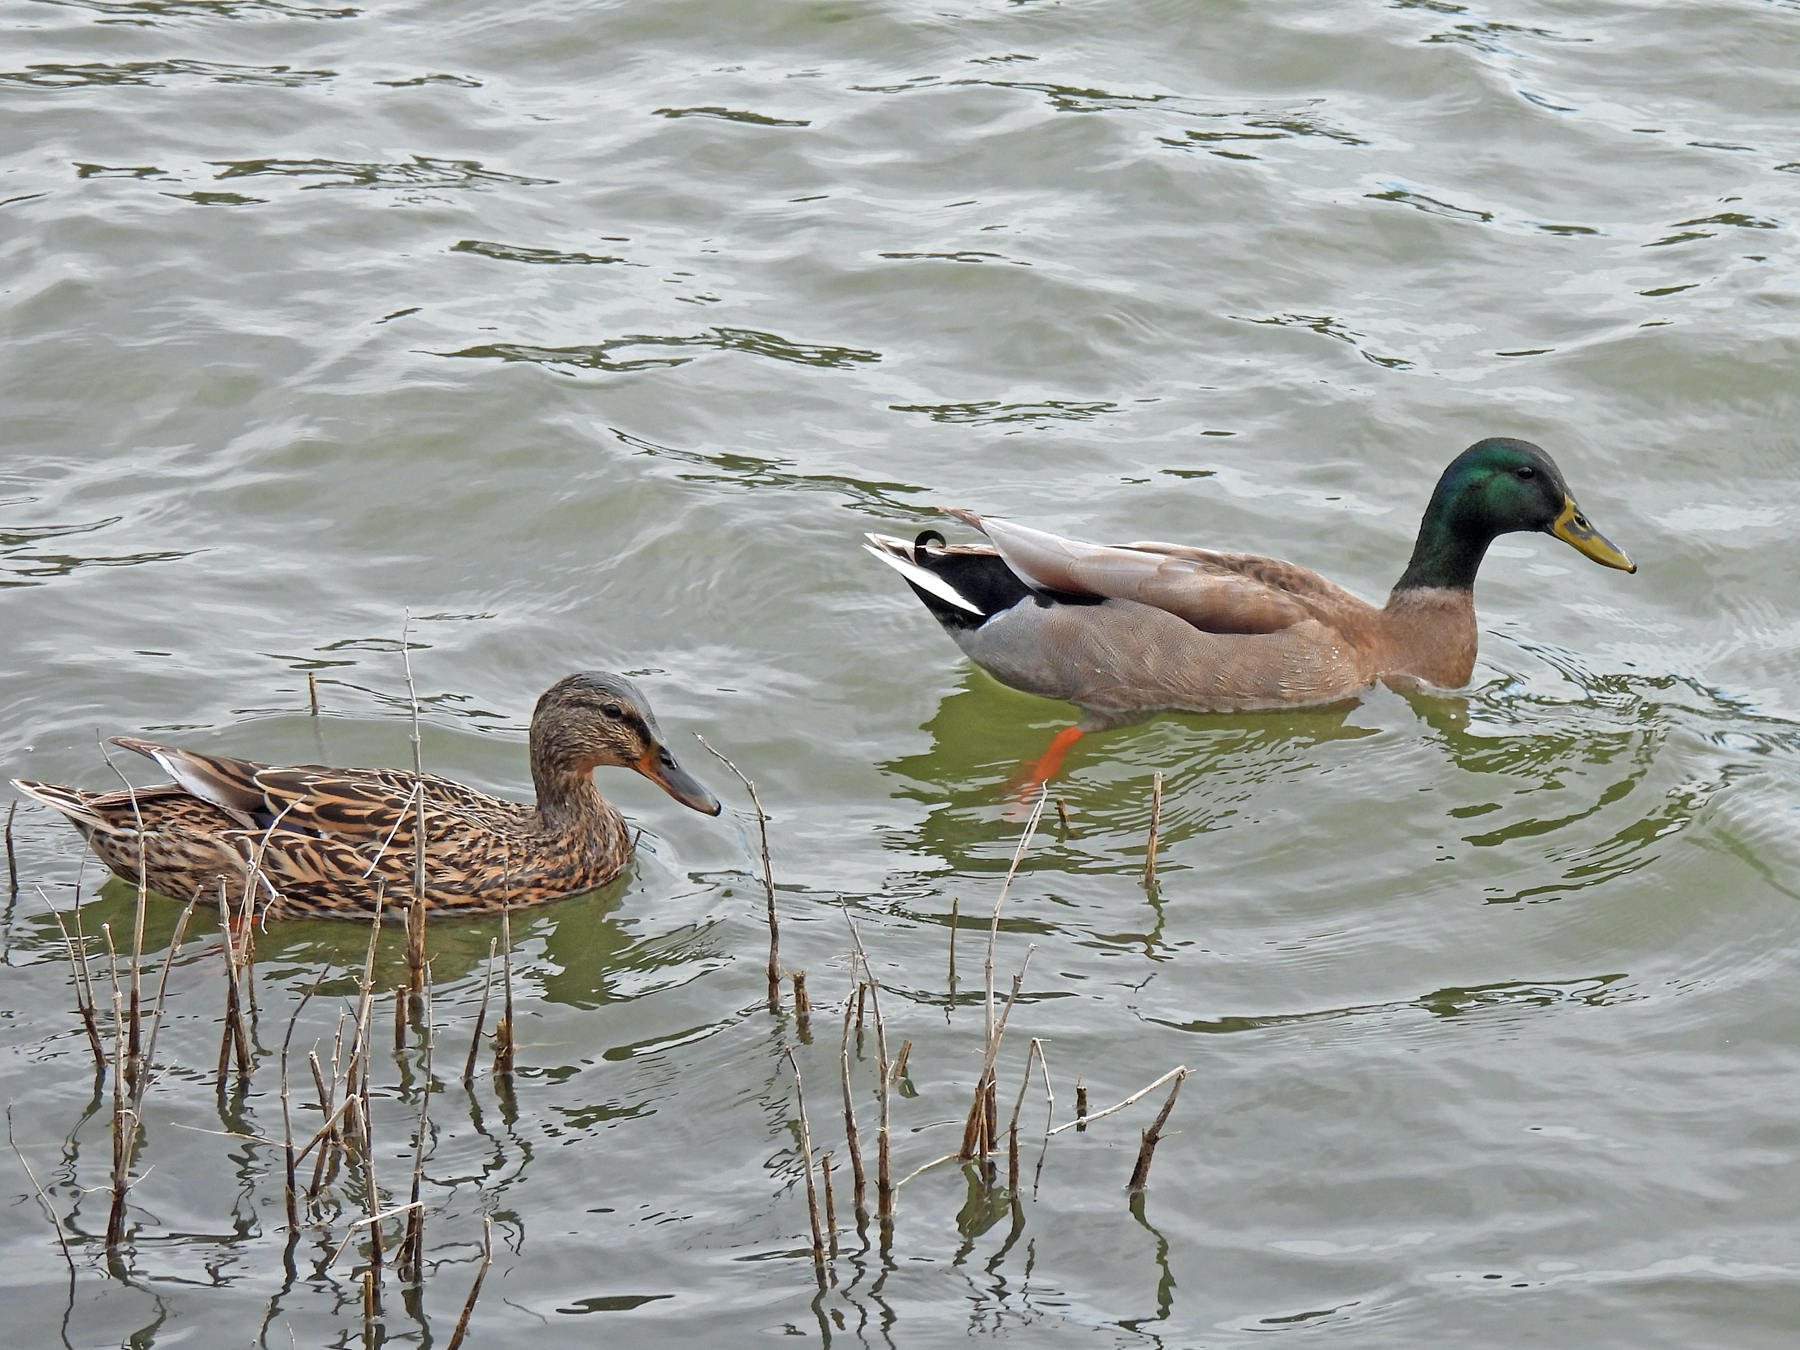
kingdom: Animalia
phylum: Chordata
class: Aves
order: Anseriformes
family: Anatidae
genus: Anas
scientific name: Anas platyrhynchos
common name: Mallard
